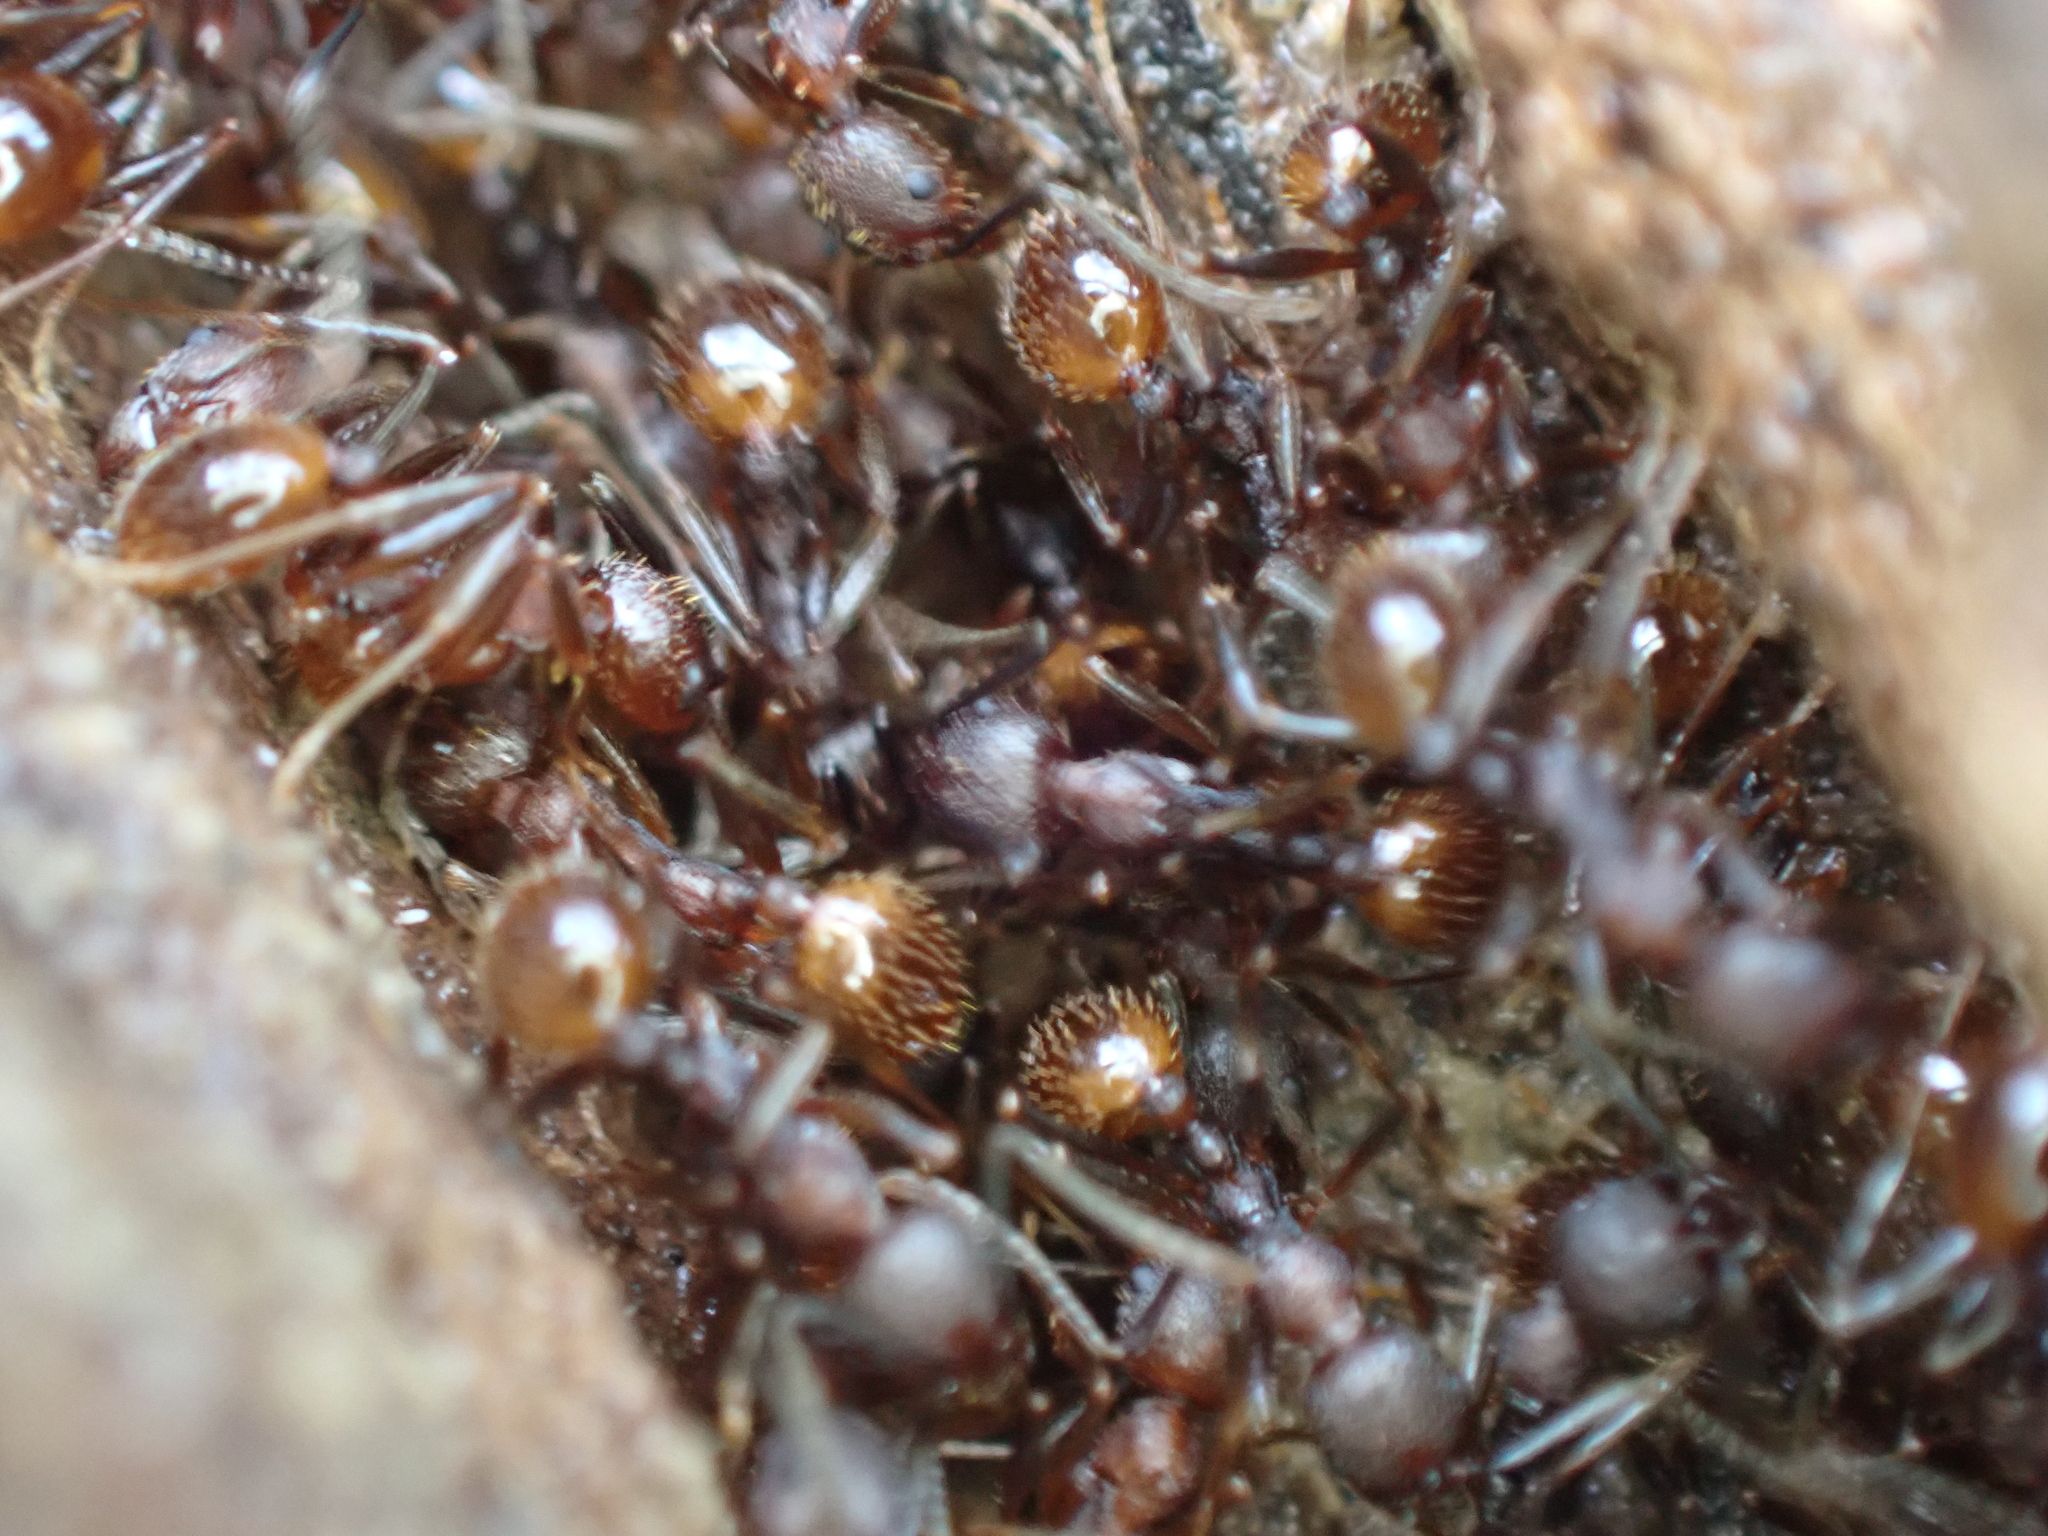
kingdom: Animalia
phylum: Arthropoda
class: Insecta
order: Hymenoptera
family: Formicidae
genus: Aphaenogaster
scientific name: Aphaenogaster fulva
